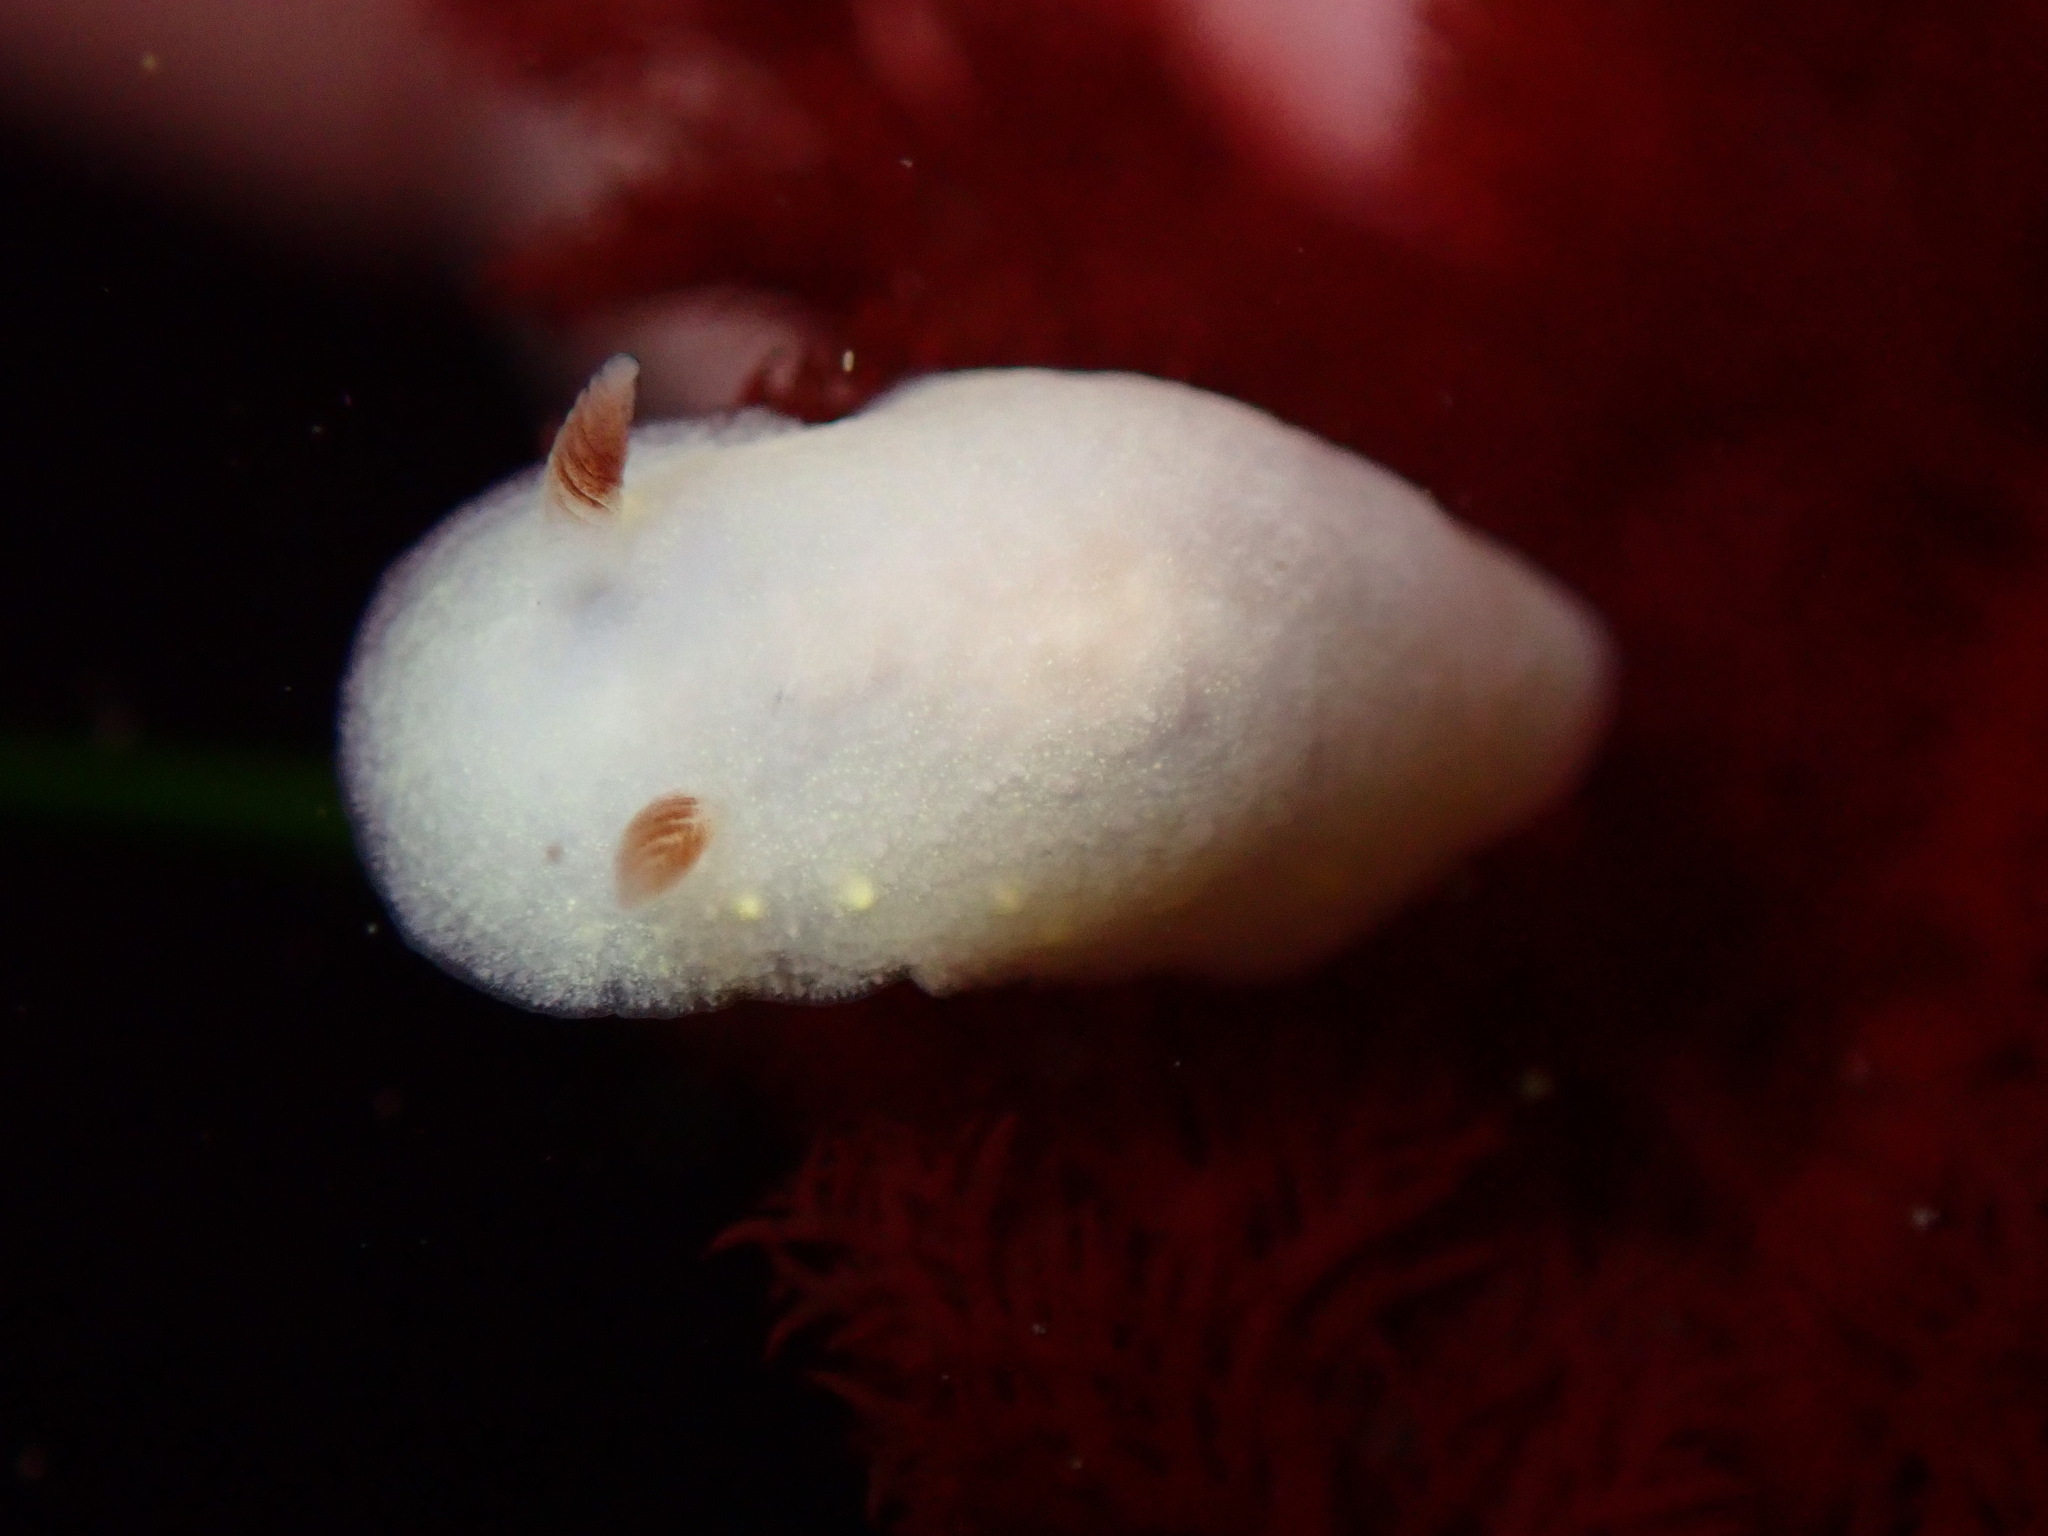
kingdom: Animalia
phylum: Mollusca
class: Gastropoda
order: Nudibranchia
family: Cadlinidae
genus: Cadlina
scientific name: Cadlina flavomaculata
